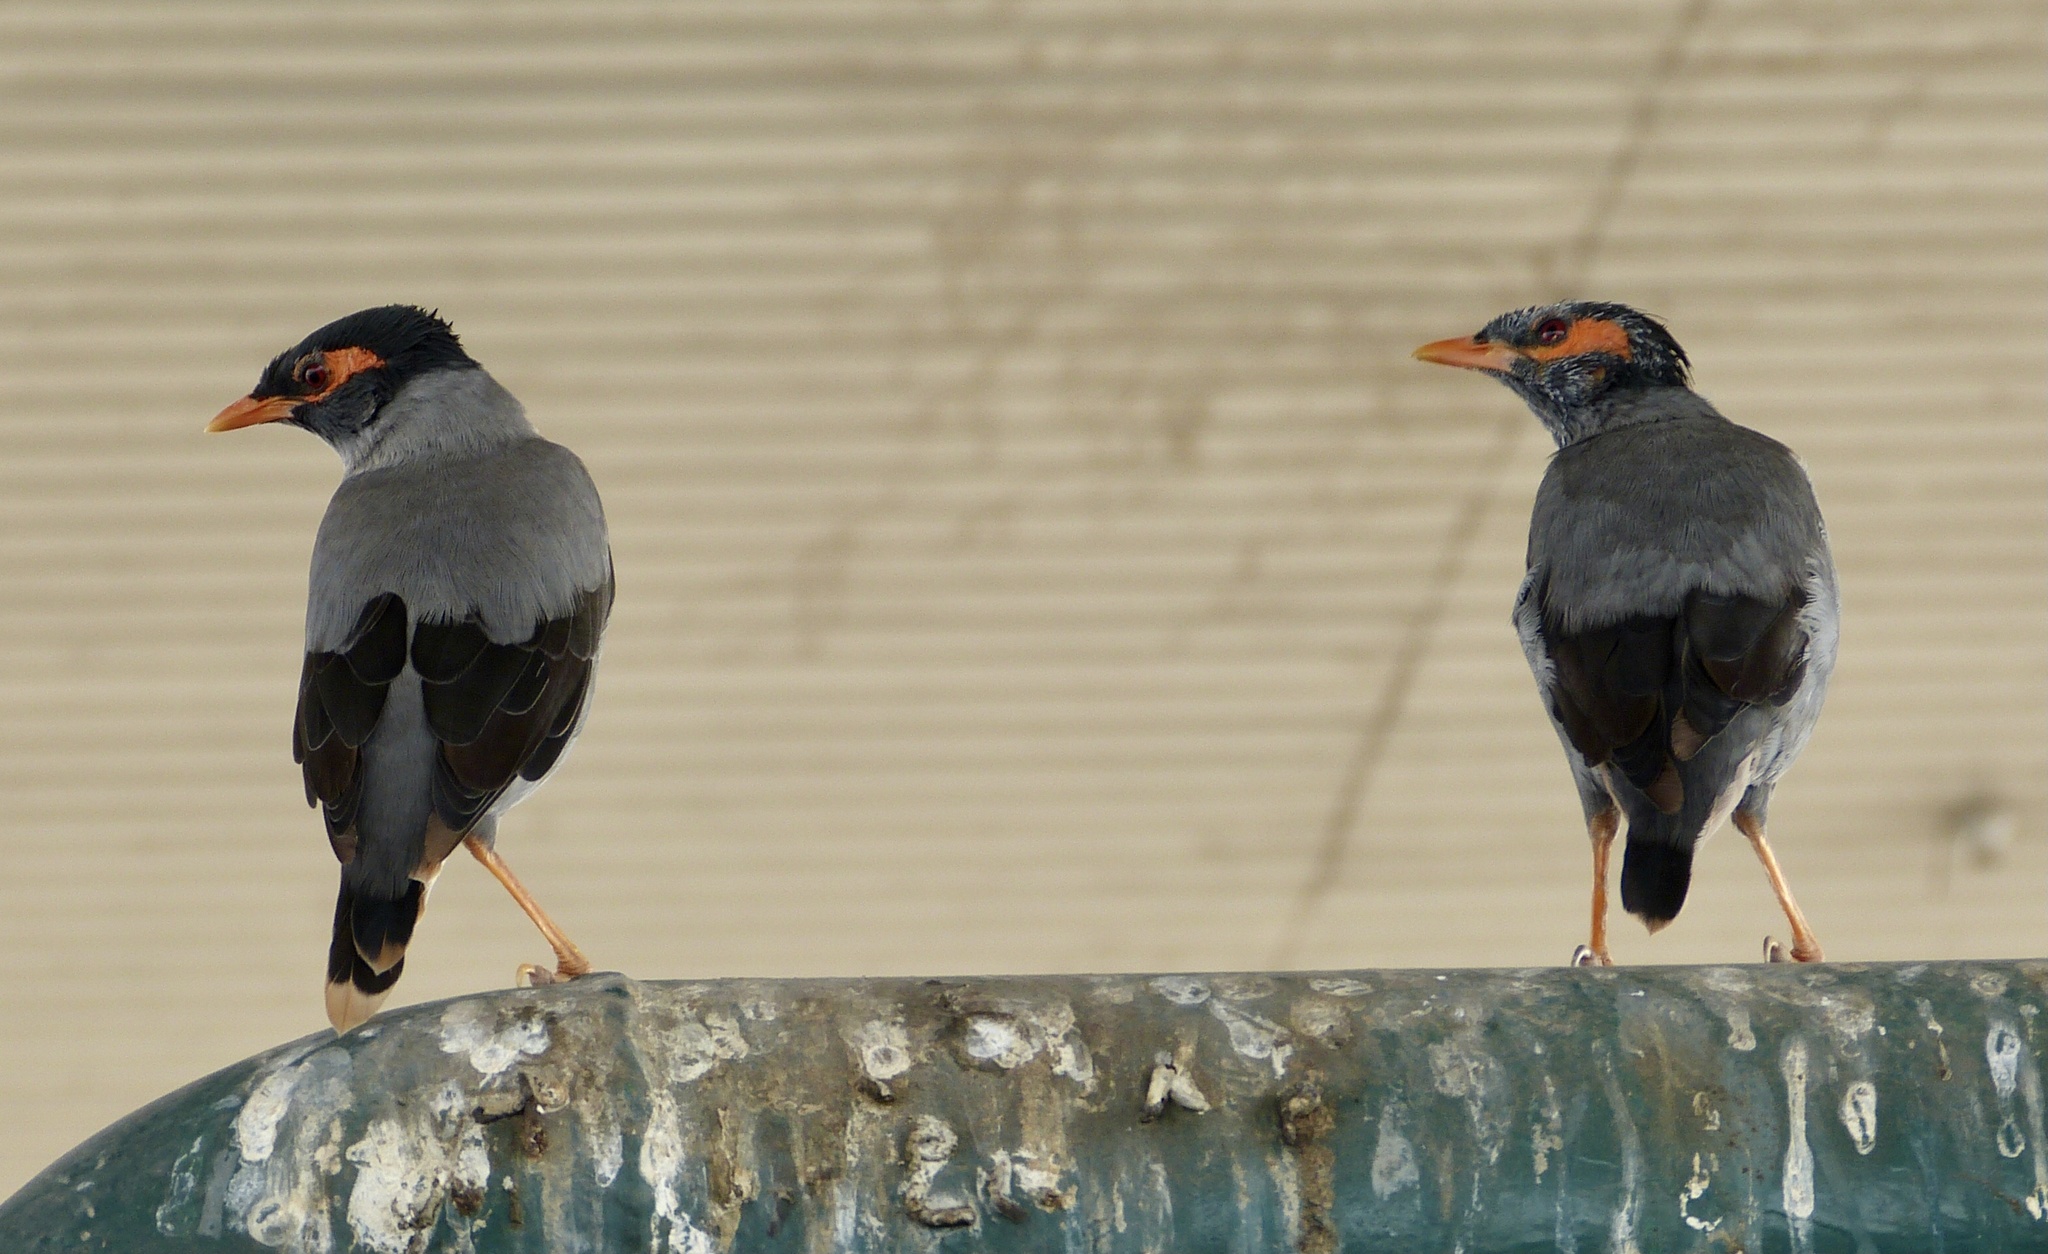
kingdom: Animalia
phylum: Chordata
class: Aves
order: Passeriformes
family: Sturnidae
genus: Acridotheres
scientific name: Acridotheres ginginianus
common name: Bank myna
